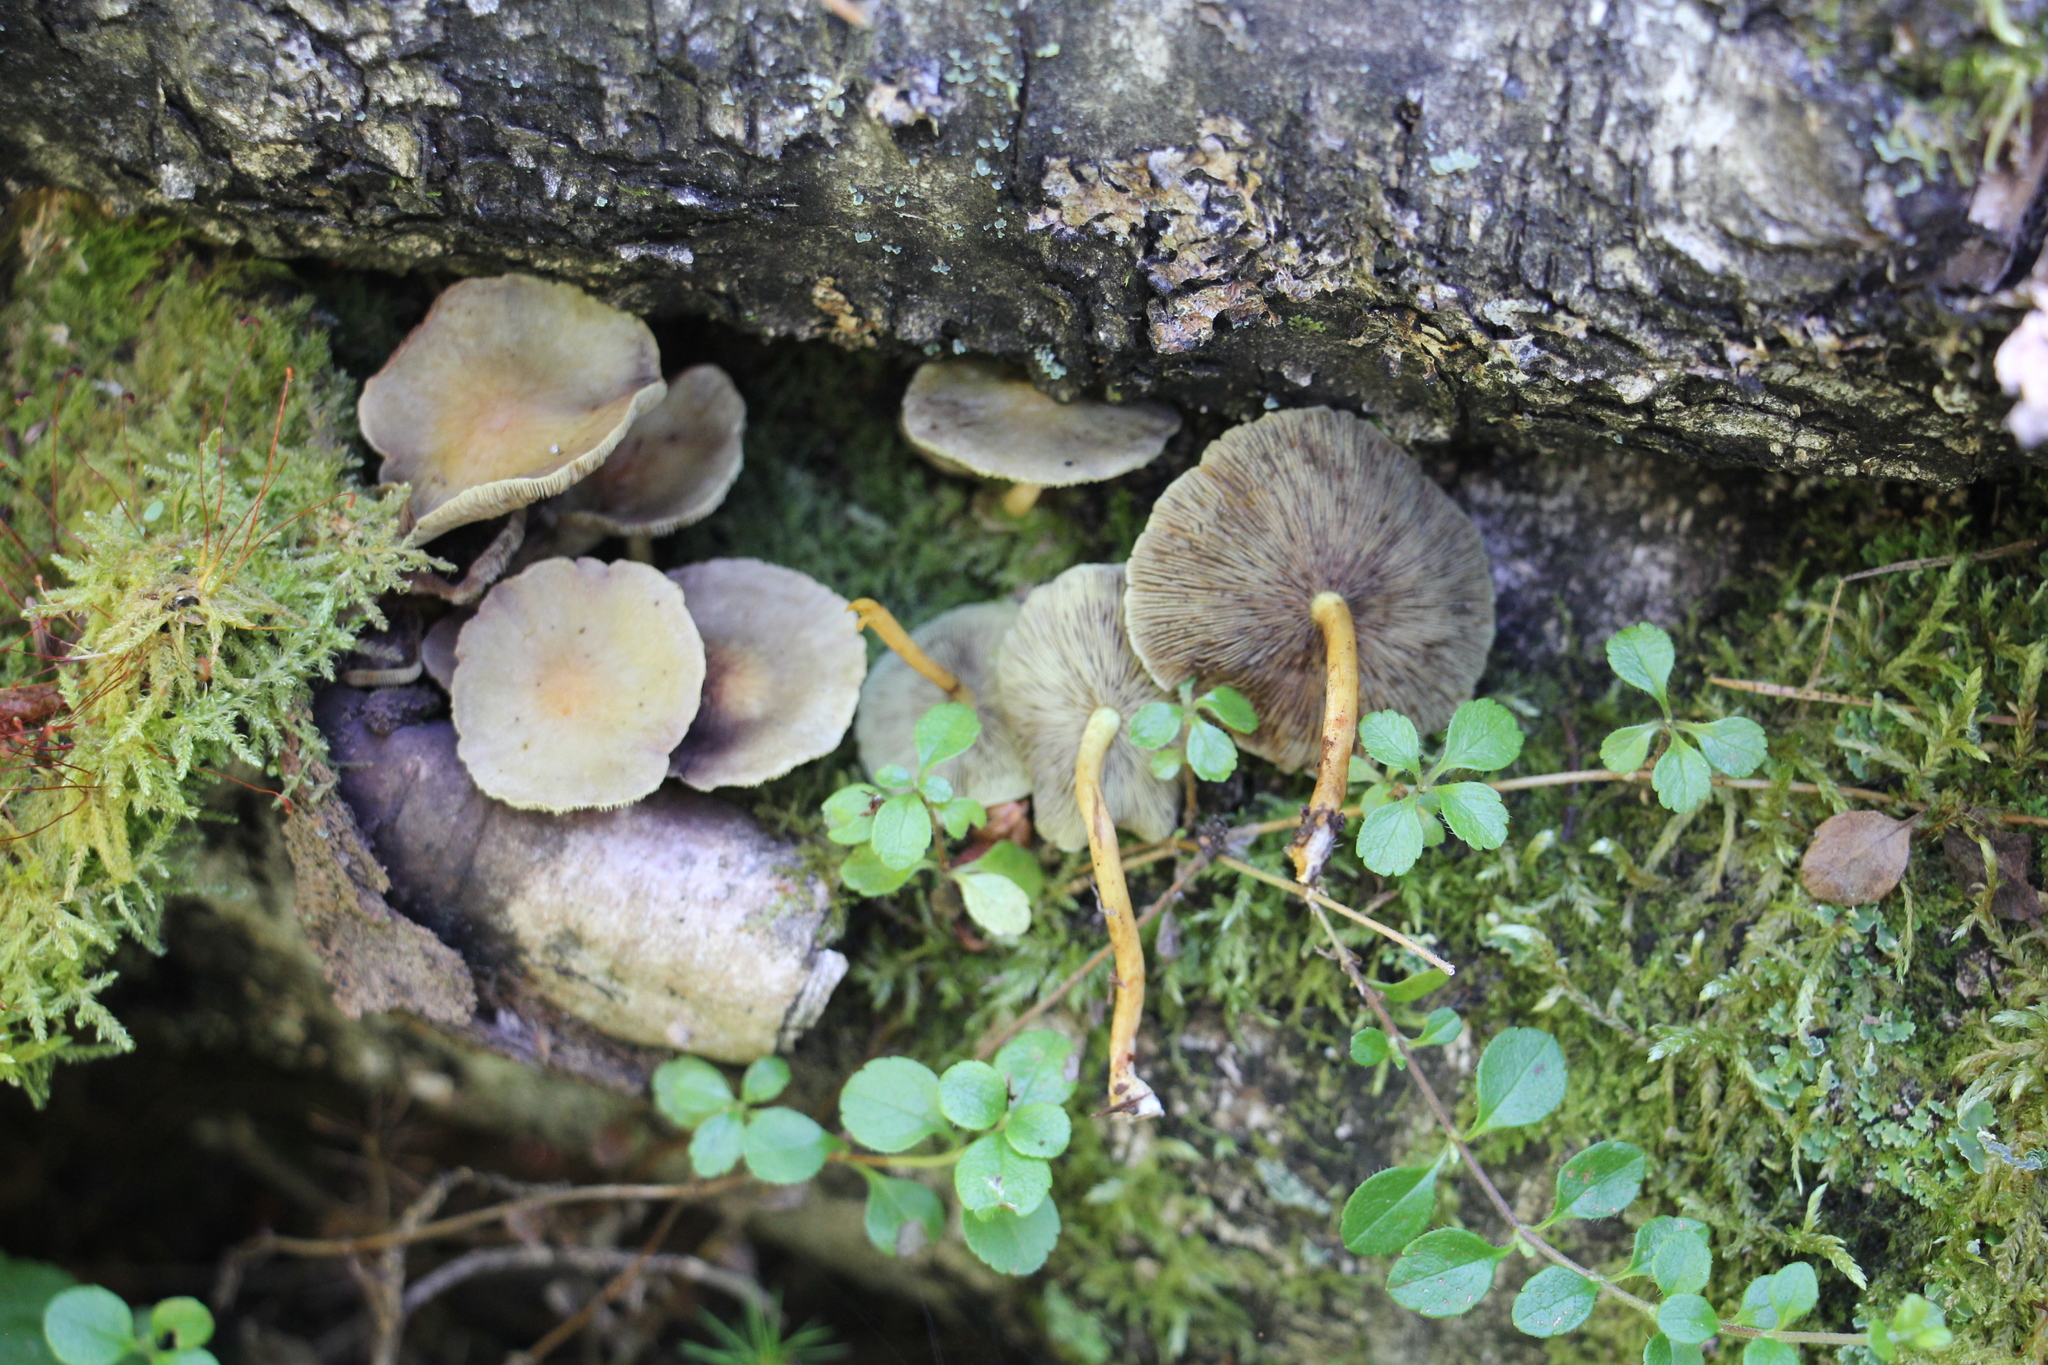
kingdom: Fungi
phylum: Basidiomycota
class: Agaricomycetes
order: Agaricales
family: Strophariaceae
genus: Hypholoma
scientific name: Hypholoma fasciculare
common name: Sulphur tuft
